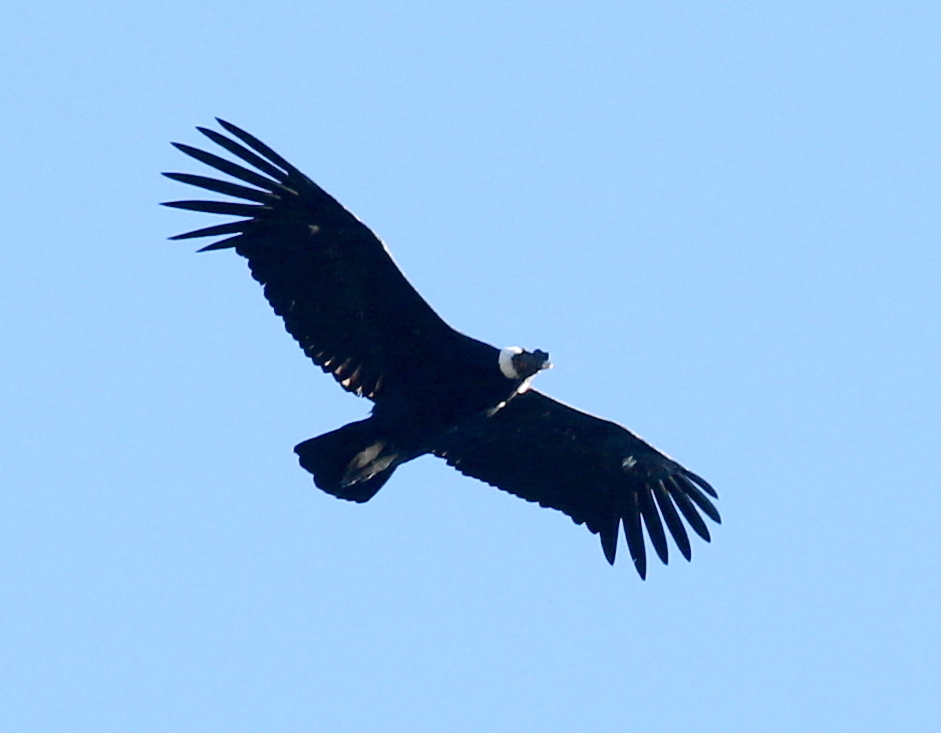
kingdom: Animalia
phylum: Chordata
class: Aves
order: Accipitriformes
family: Cathartidae
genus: Vultur
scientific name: Vultur gryphus
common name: Andean condor
